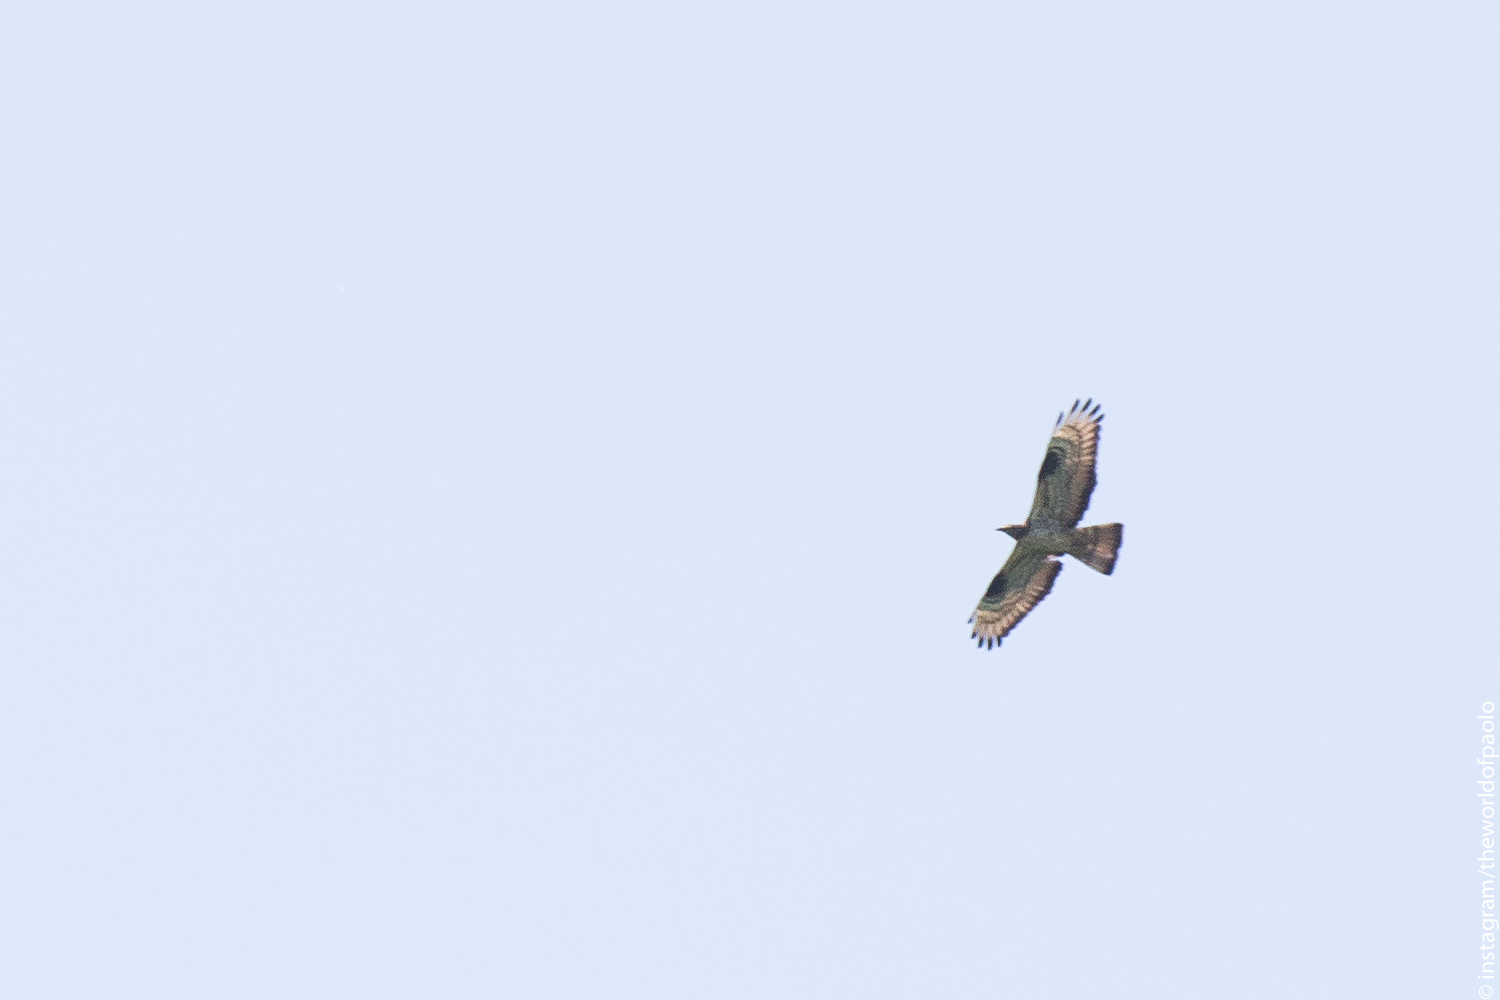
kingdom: Animalia
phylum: Chordata
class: Aves
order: Accipitriformes
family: Accipitridae
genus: Pernis
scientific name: Pernis apivorus
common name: European honey buzzard
